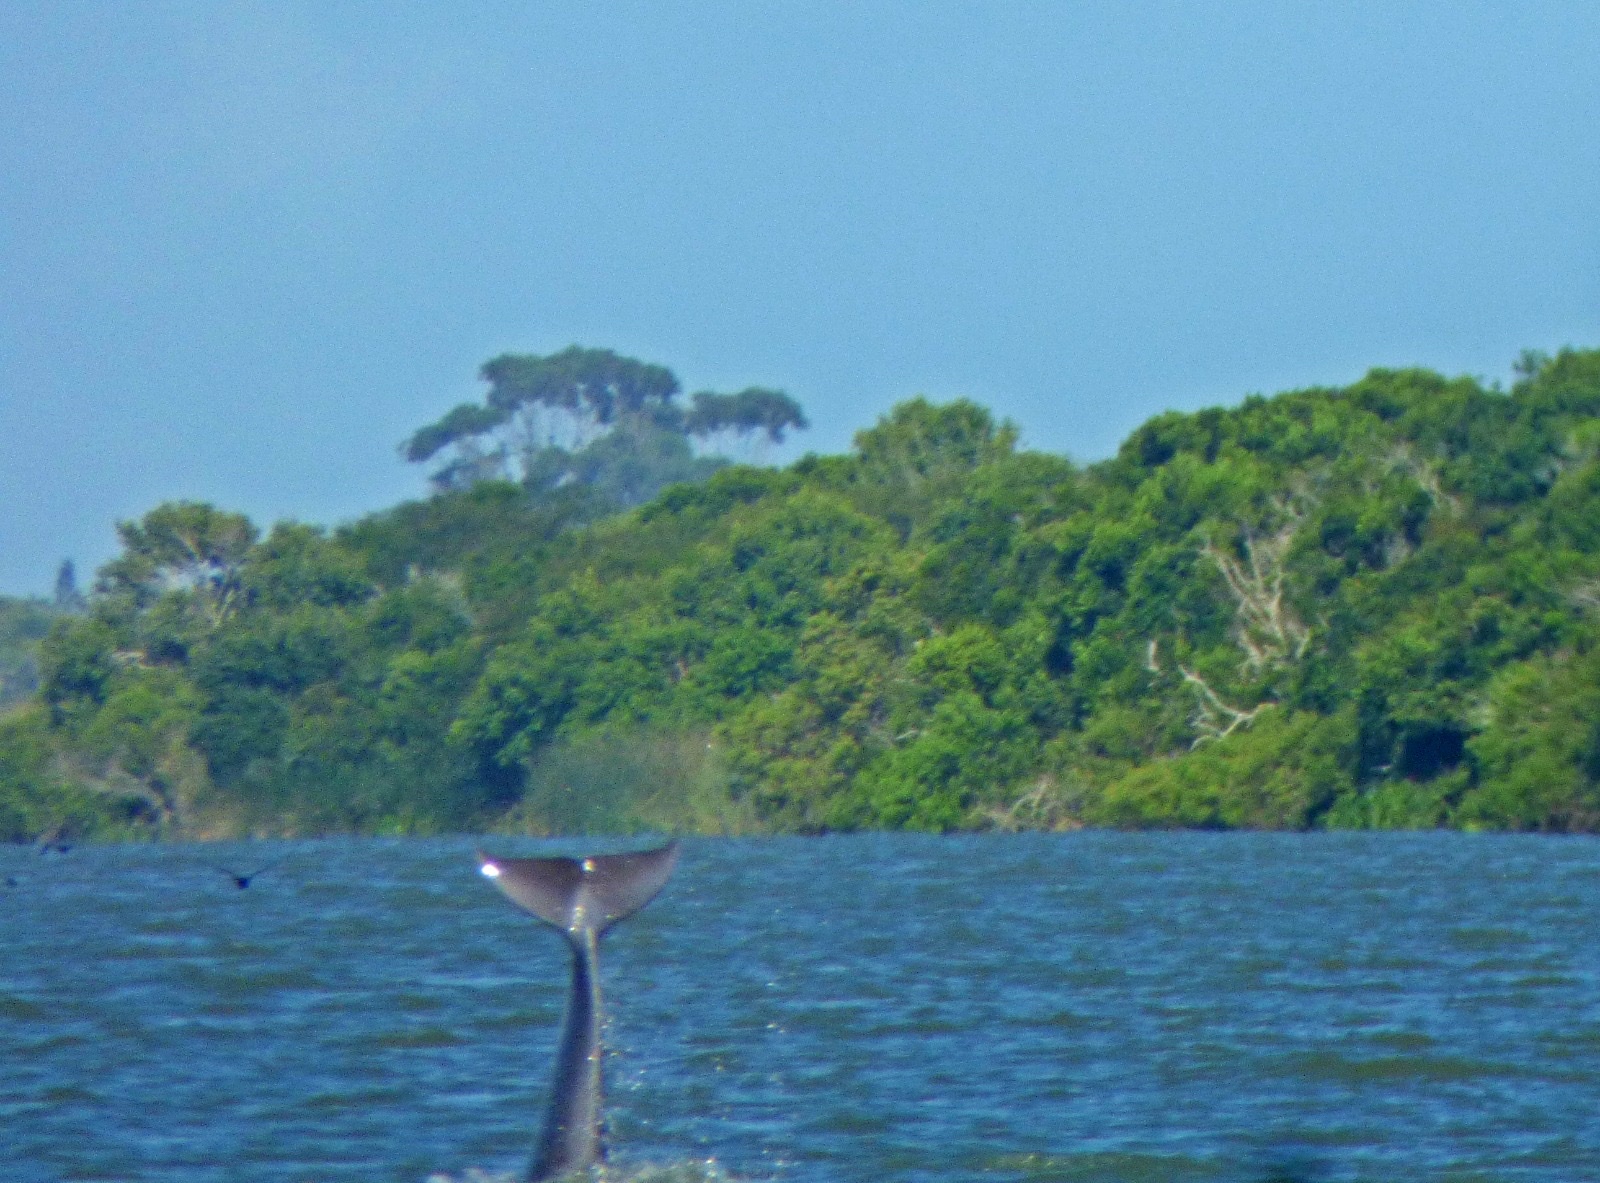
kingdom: Animalia
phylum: Chordata
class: Mammalia
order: Cetacea
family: Delphinidae
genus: Tursiops
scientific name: Tursiops truncatus
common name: Bottlenose dolphin
